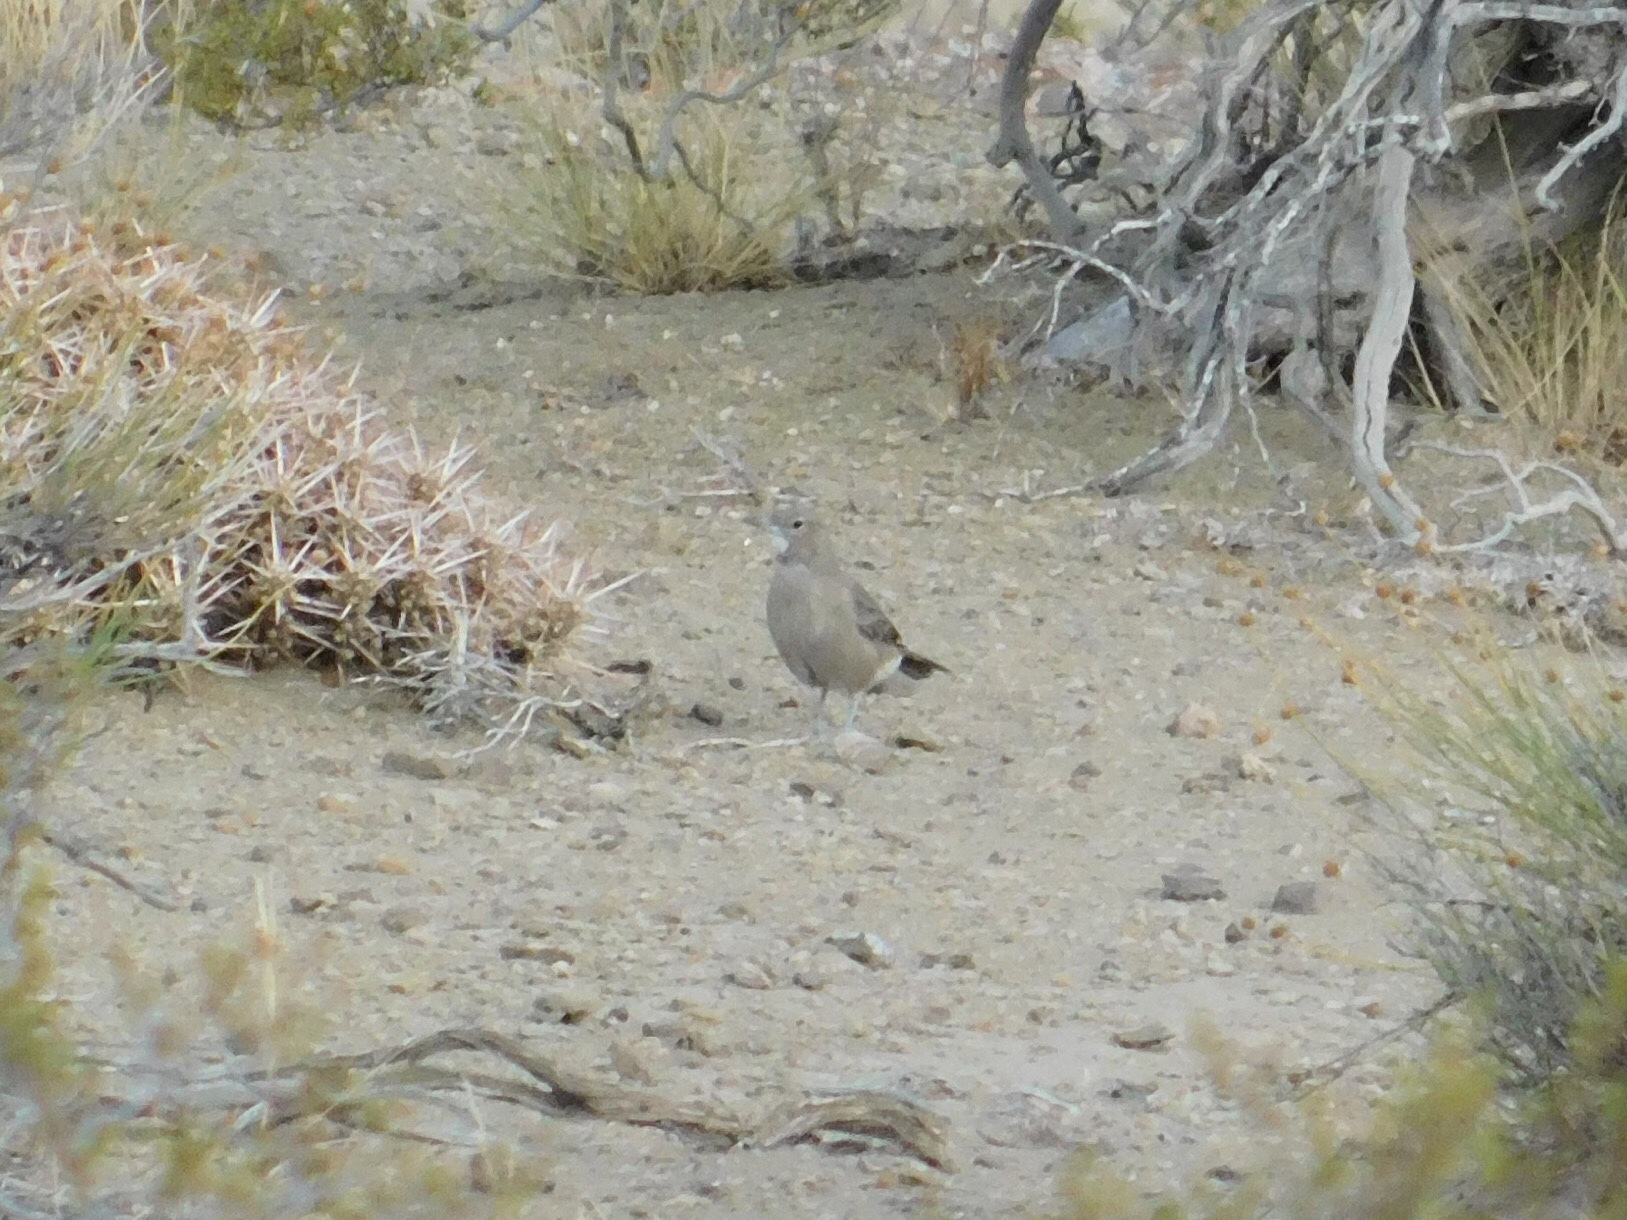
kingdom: Animalia
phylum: Chordata
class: Aves
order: Passeriformes
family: Furnariidae
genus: Pseudoseisura
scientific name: Pseudoseisura gutturalis
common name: White-throated cacholote
